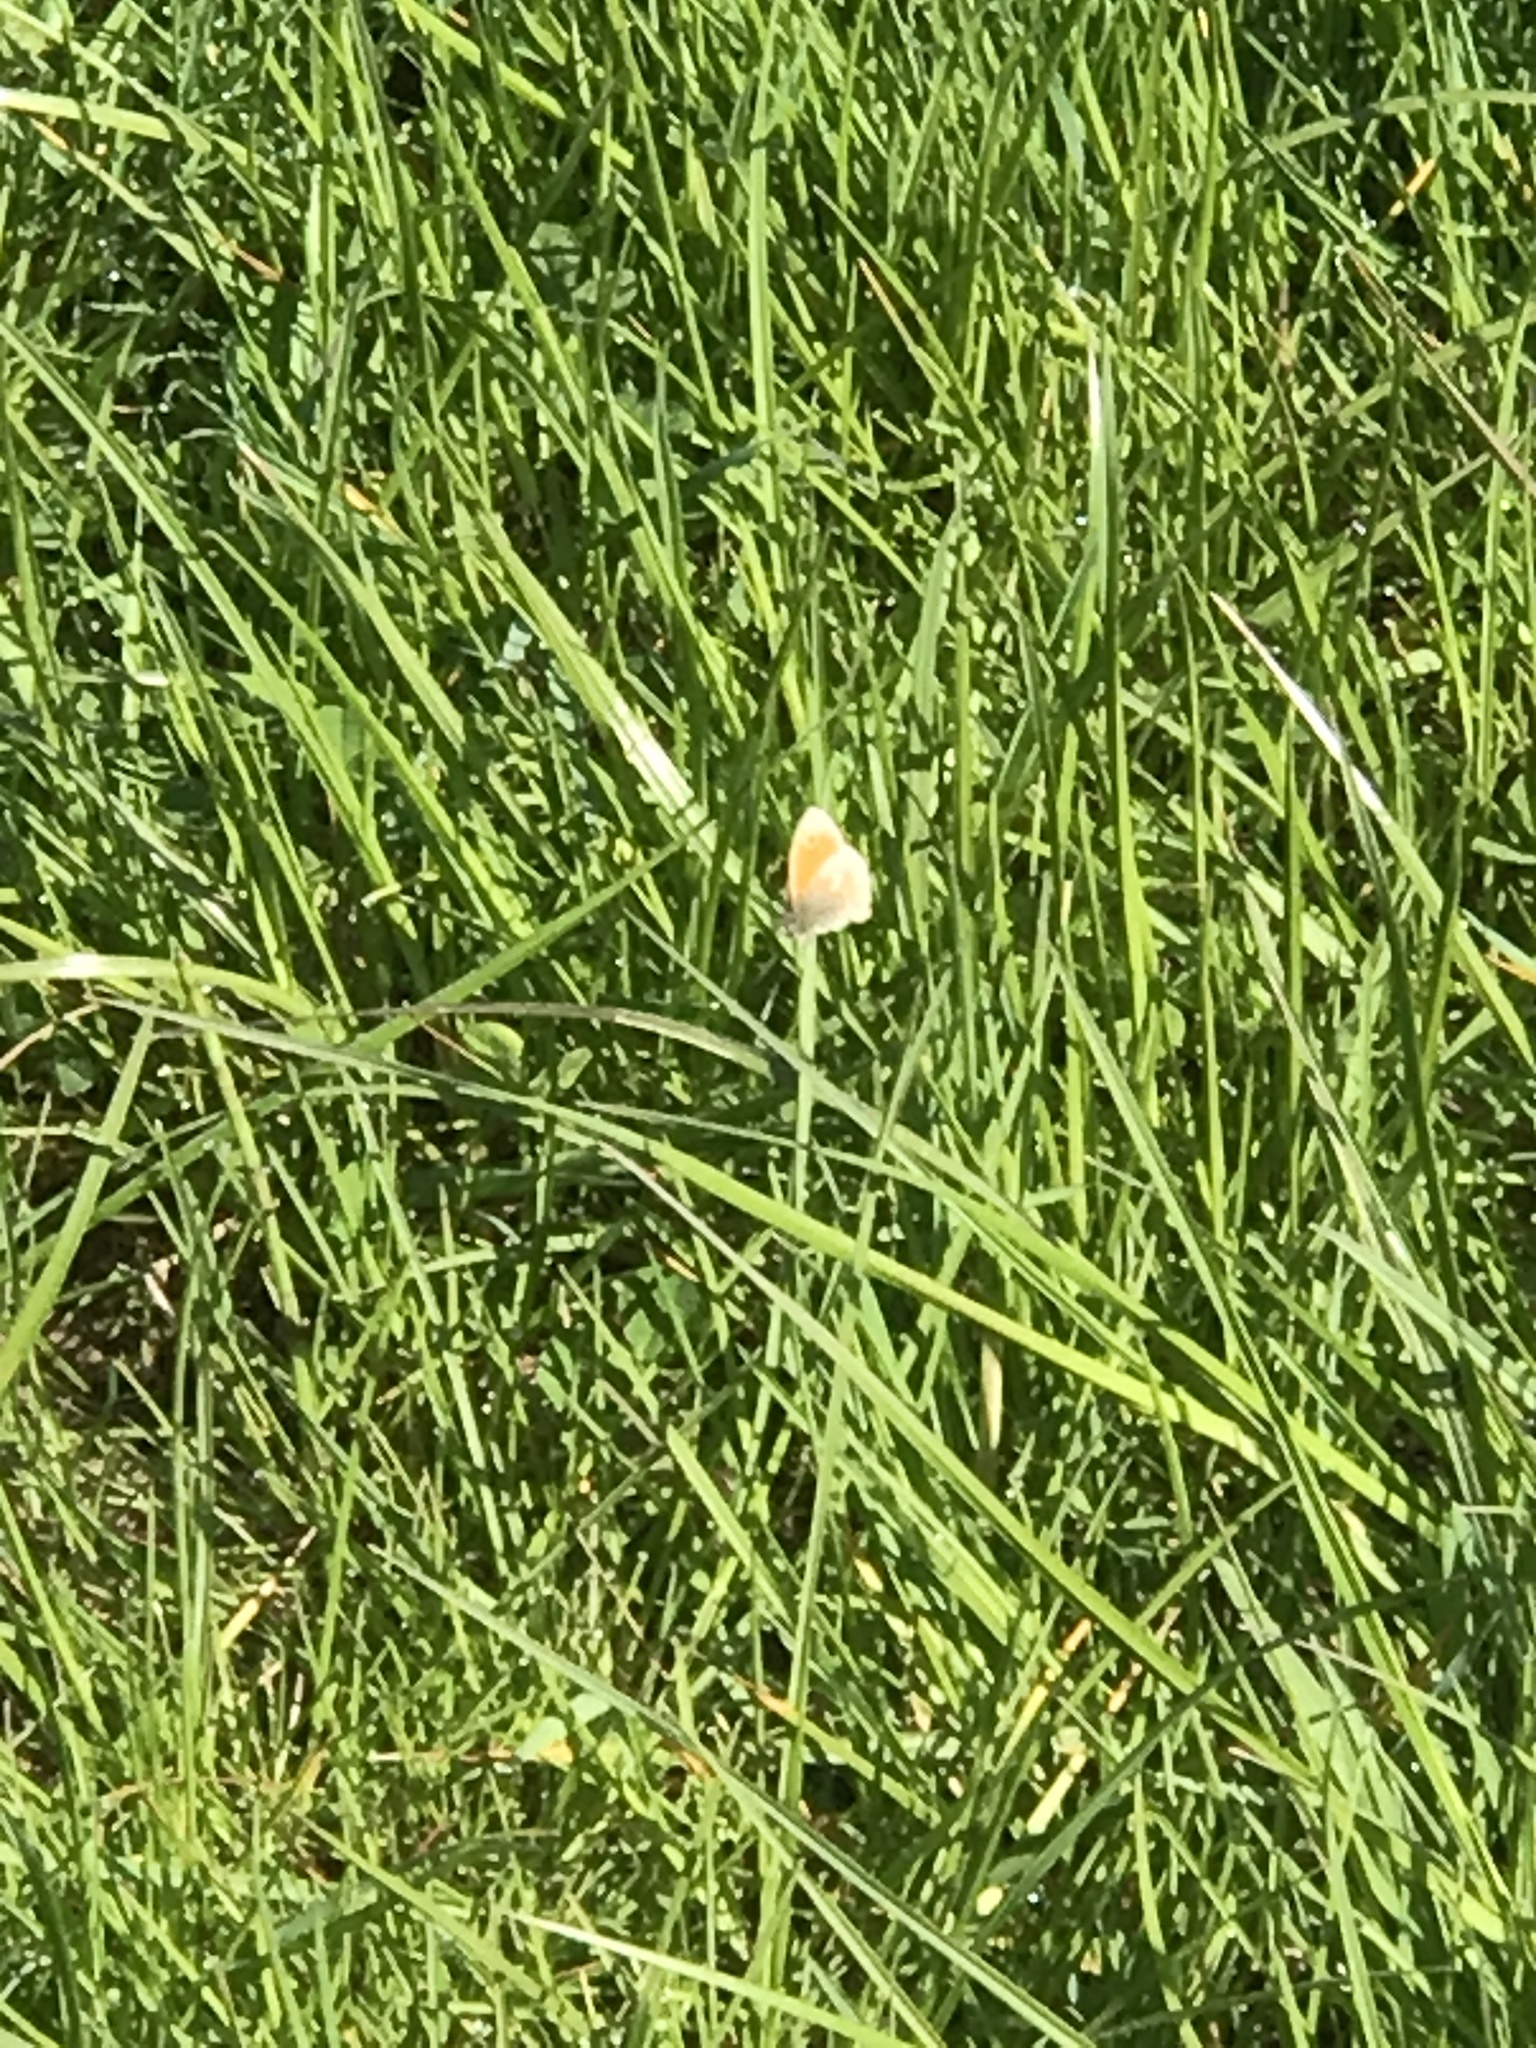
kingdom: Animalia
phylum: Arthropoda
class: Insecta
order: Lepidoptera
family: Nymphalidae
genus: Coenonympha
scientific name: Coenonympha pamphilus
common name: Small heath
